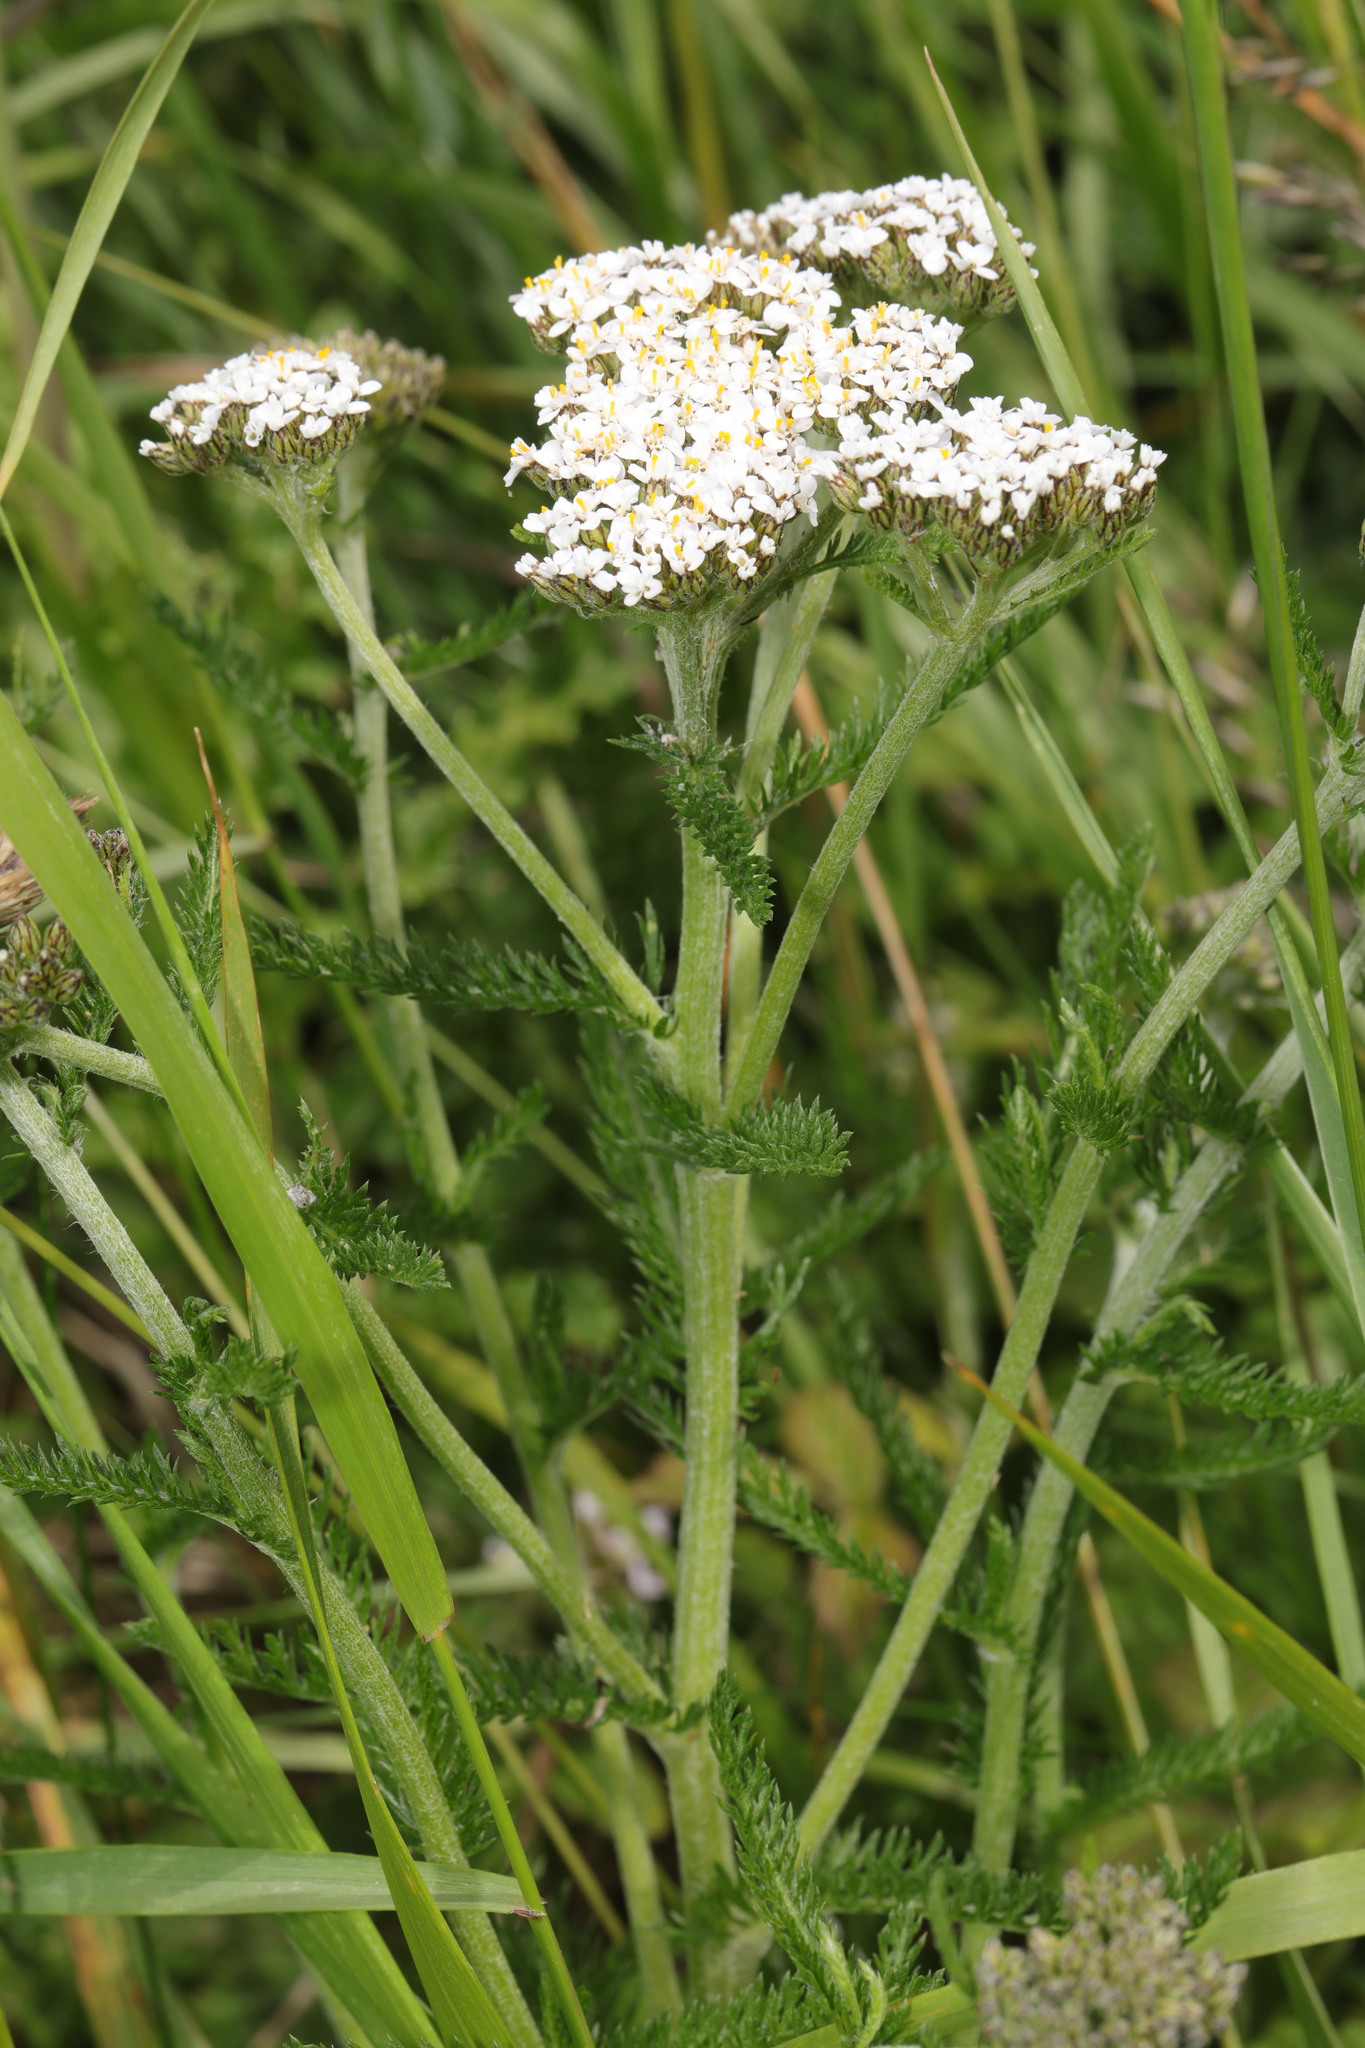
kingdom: Plantae
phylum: Tracheophyta
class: Magnoliopsida
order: Asterales
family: Asteraceae
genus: Achillea
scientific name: Achillea millefolium
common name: Yarrow
